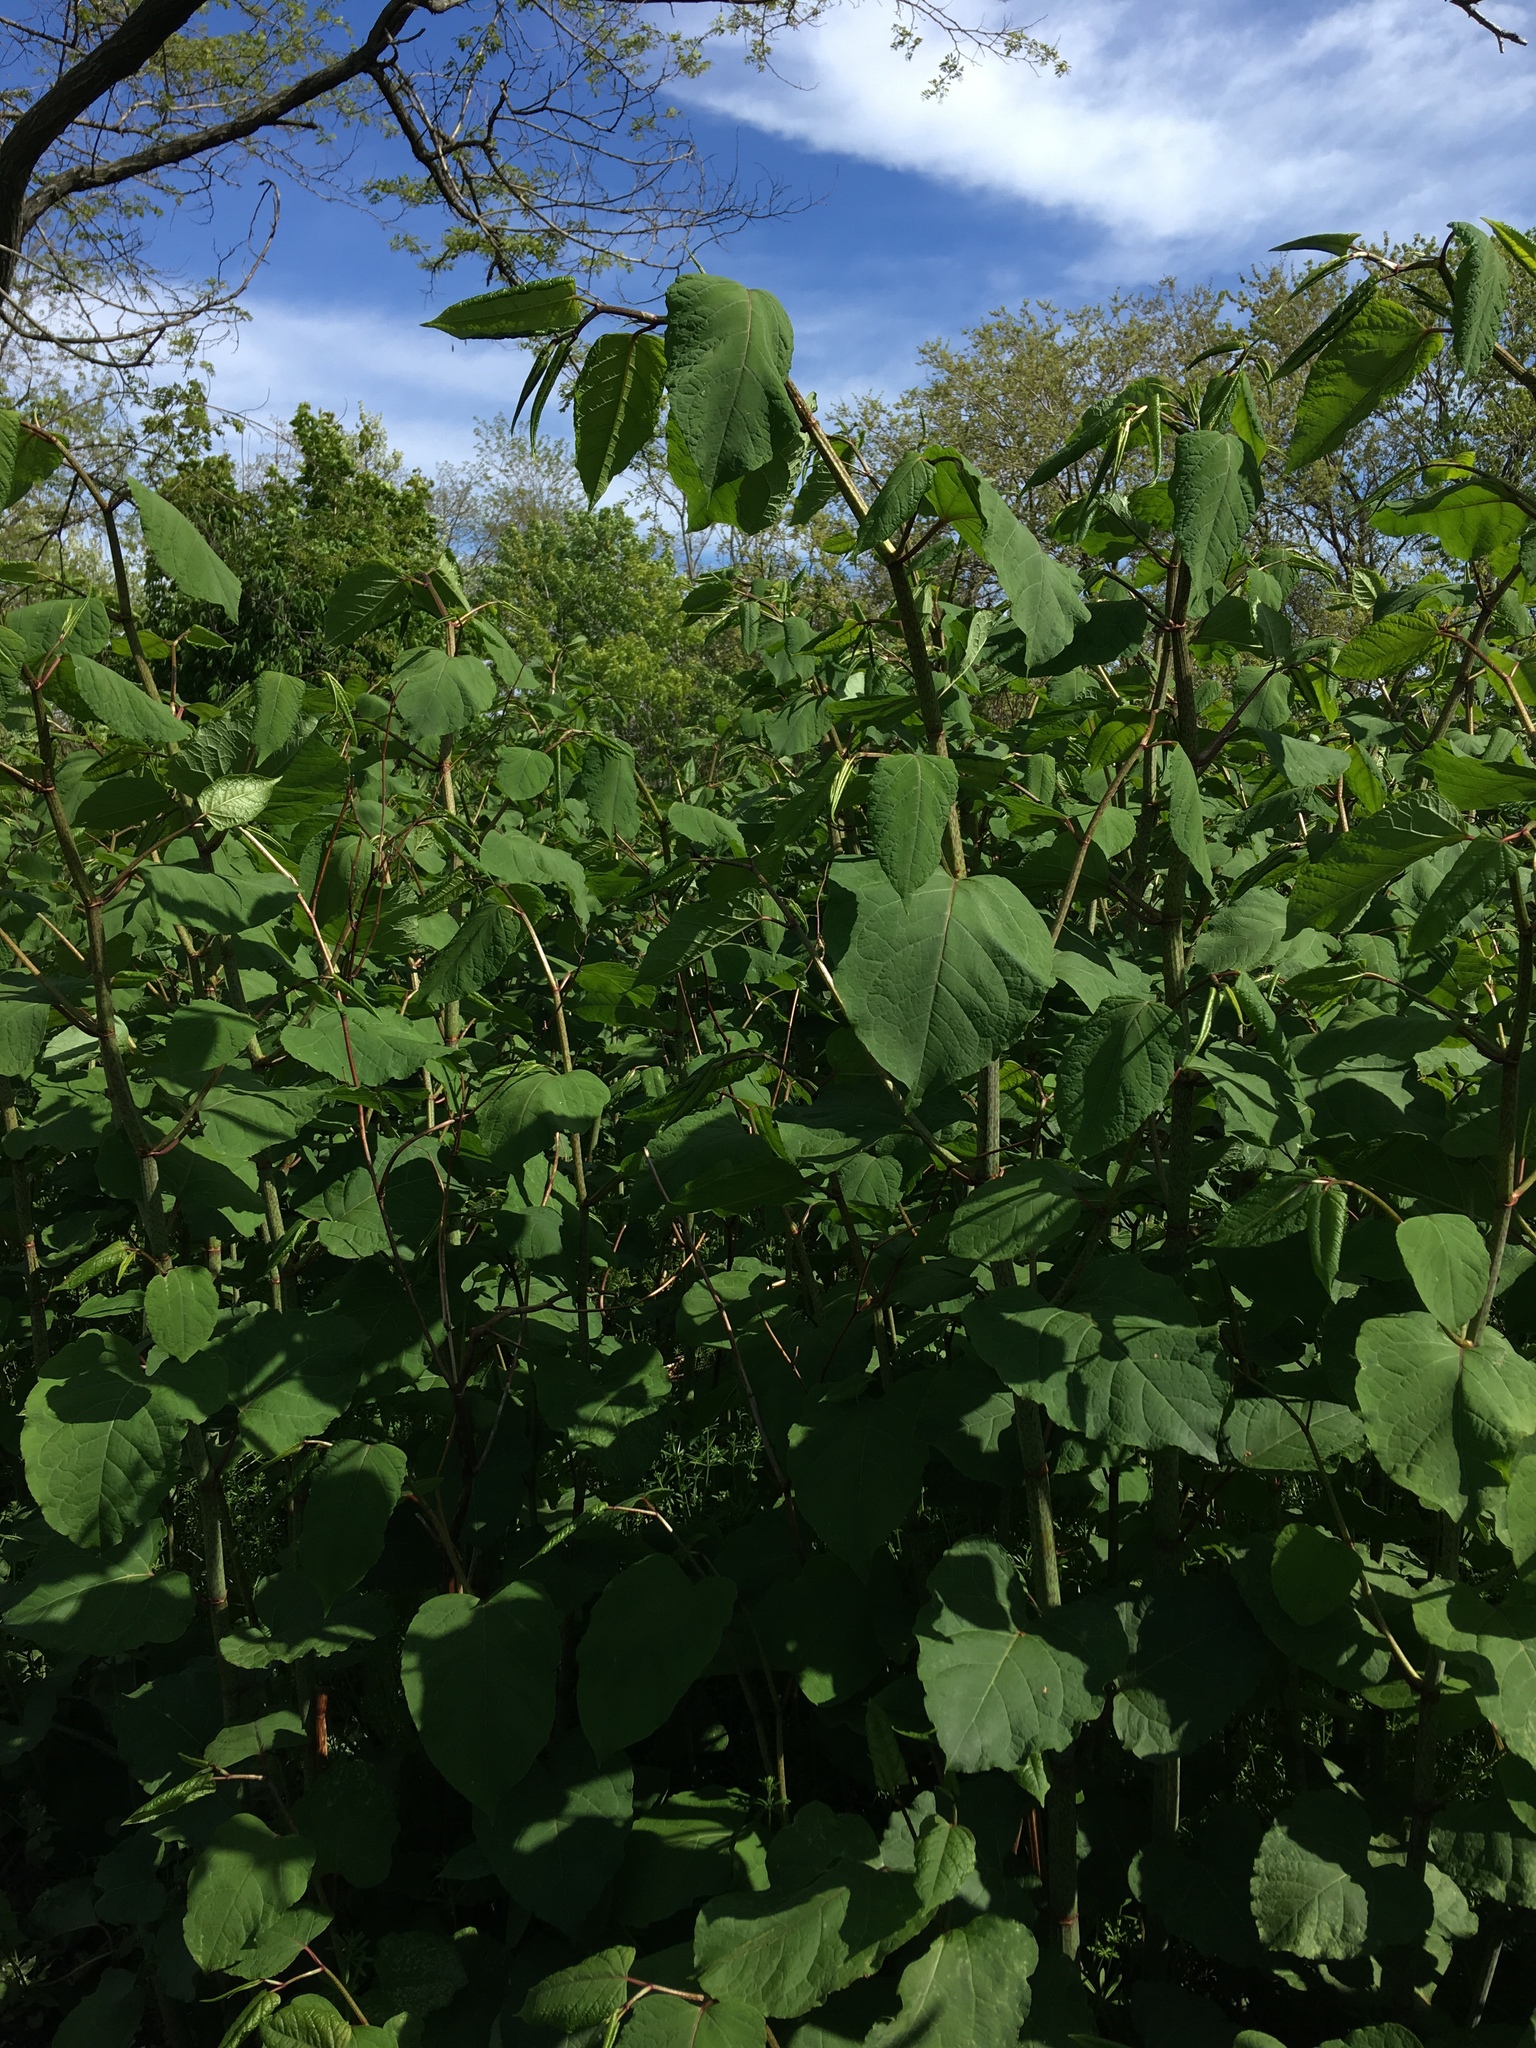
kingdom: Plantae
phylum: Tracheophyta
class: Magnoliopsida
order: Caryophyllales
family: Polygonaceae
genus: Reynoutria
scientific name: Reynoutria japonica
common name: Japanese knotweed
